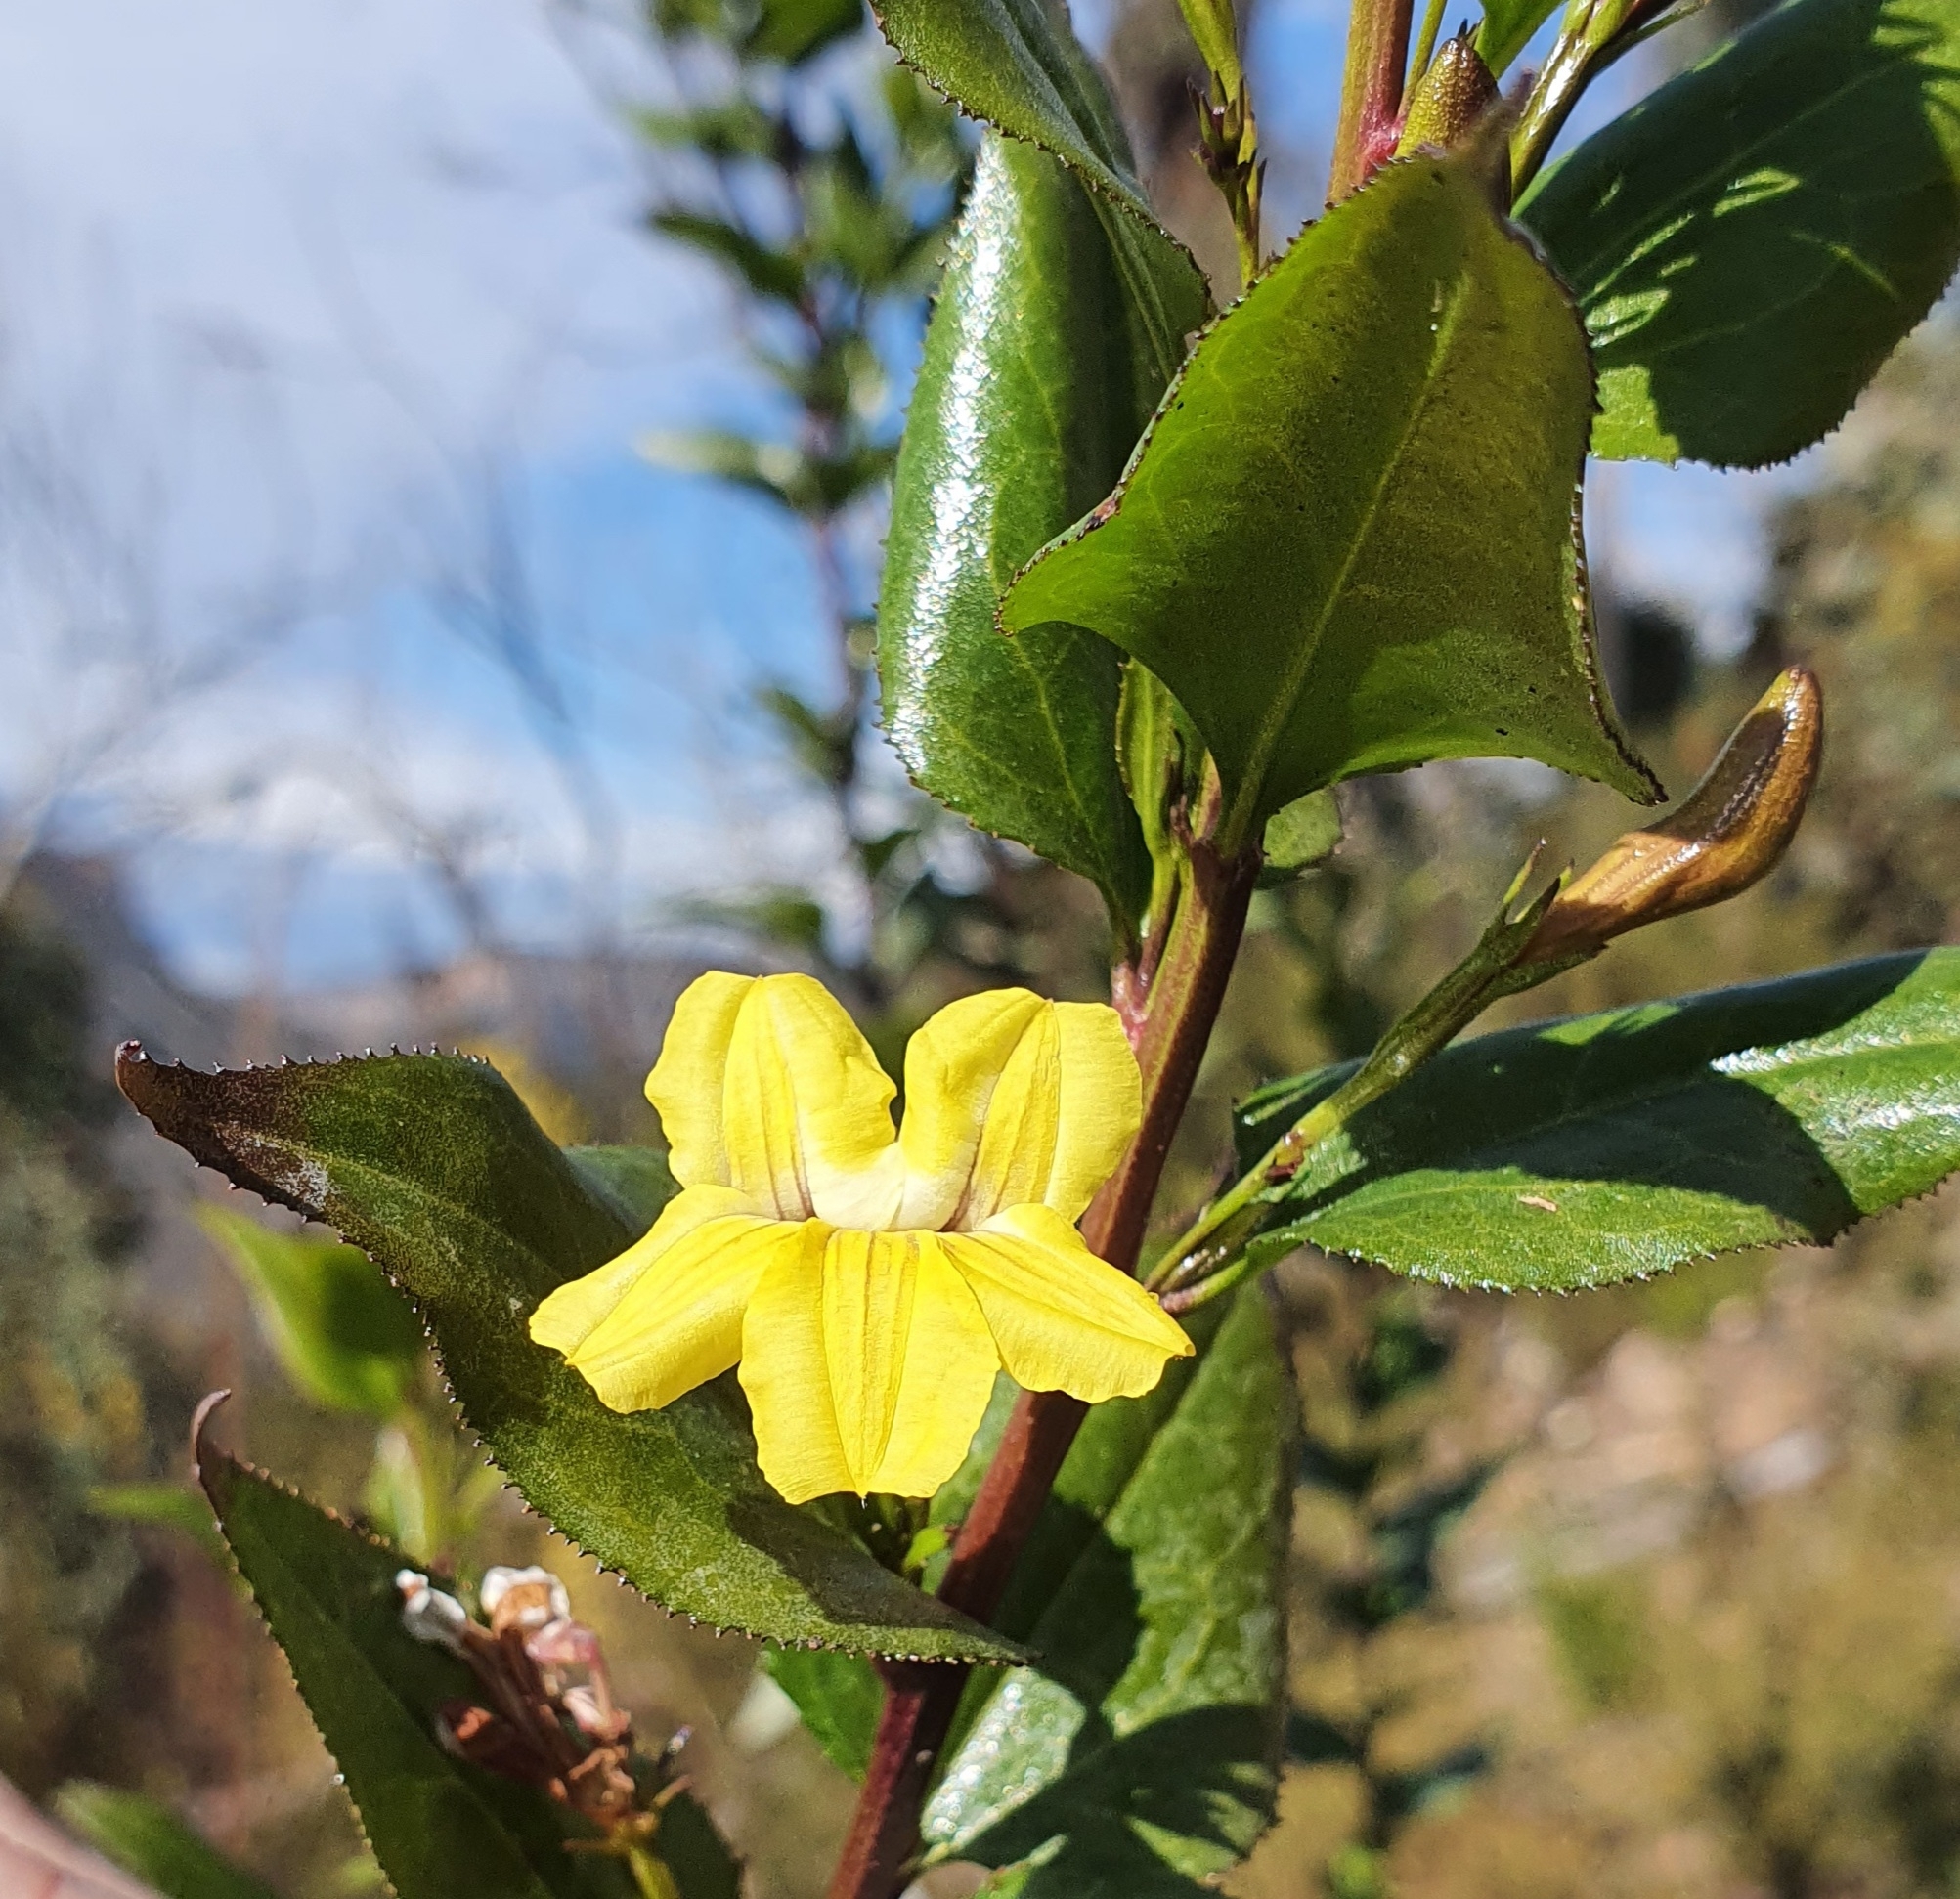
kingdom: Plantae
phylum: Tracheophyta
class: Magnoliopsida
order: Asterales
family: Goodeniaceae
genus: Goodenia
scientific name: Goodenia ovata
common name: Hop goodenia
